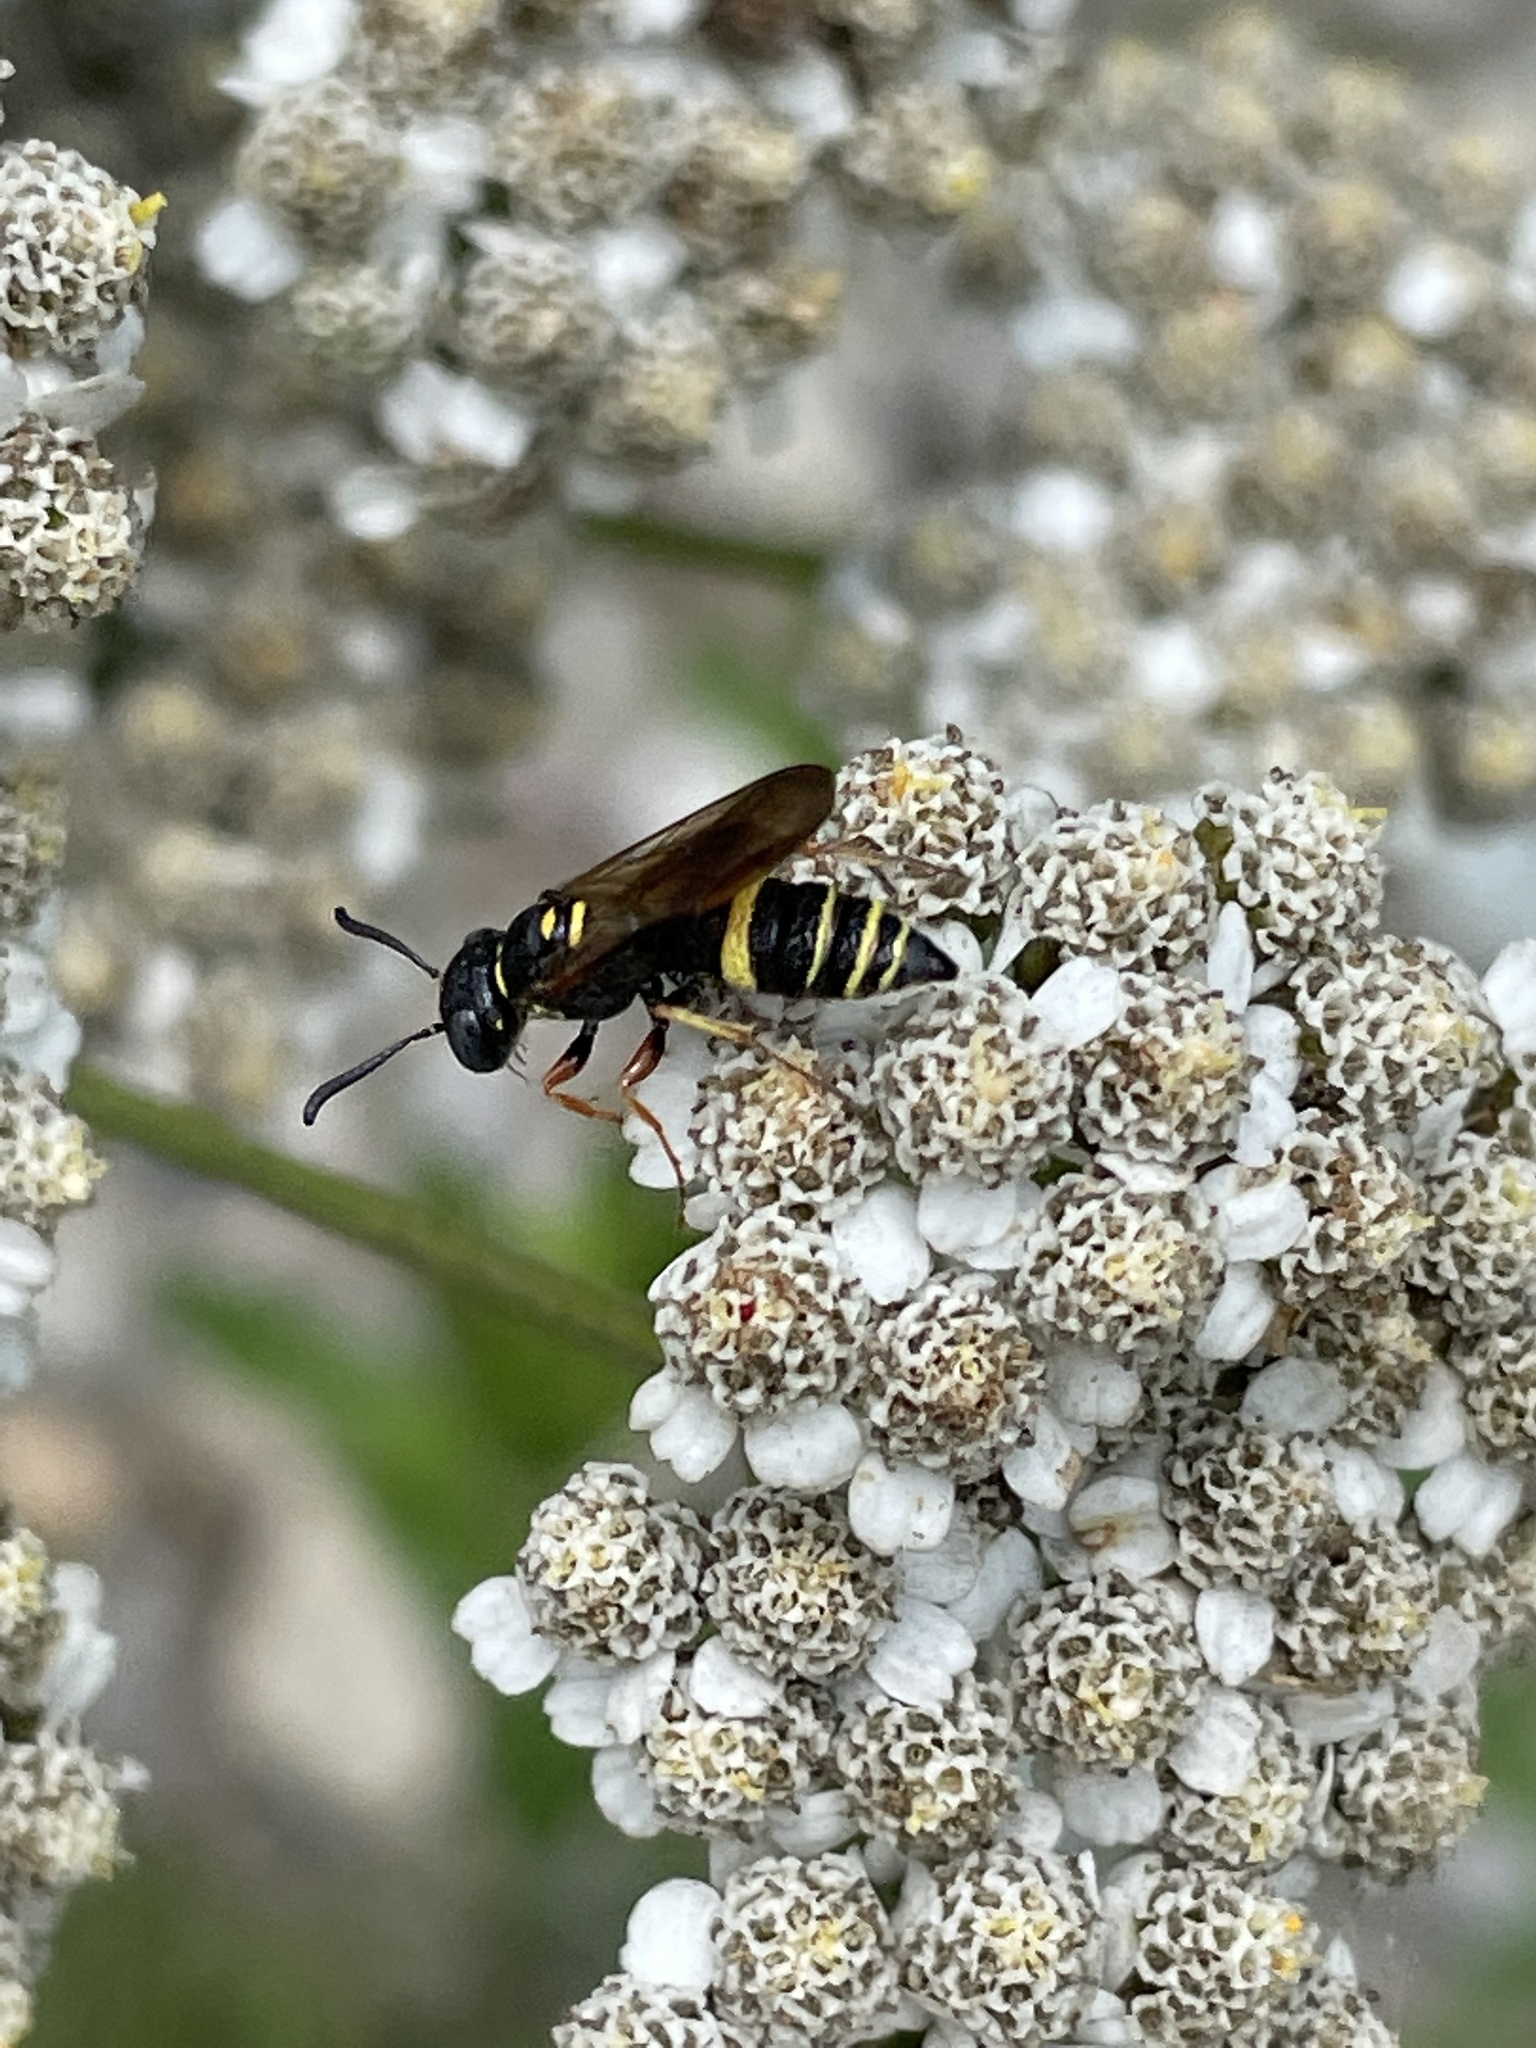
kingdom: Animalia
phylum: Arthropoda
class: Insecta
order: Hymenoptera
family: Crabronidae
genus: Philanthus
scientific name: Philanthus gibbosus
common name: Humped beewolf
